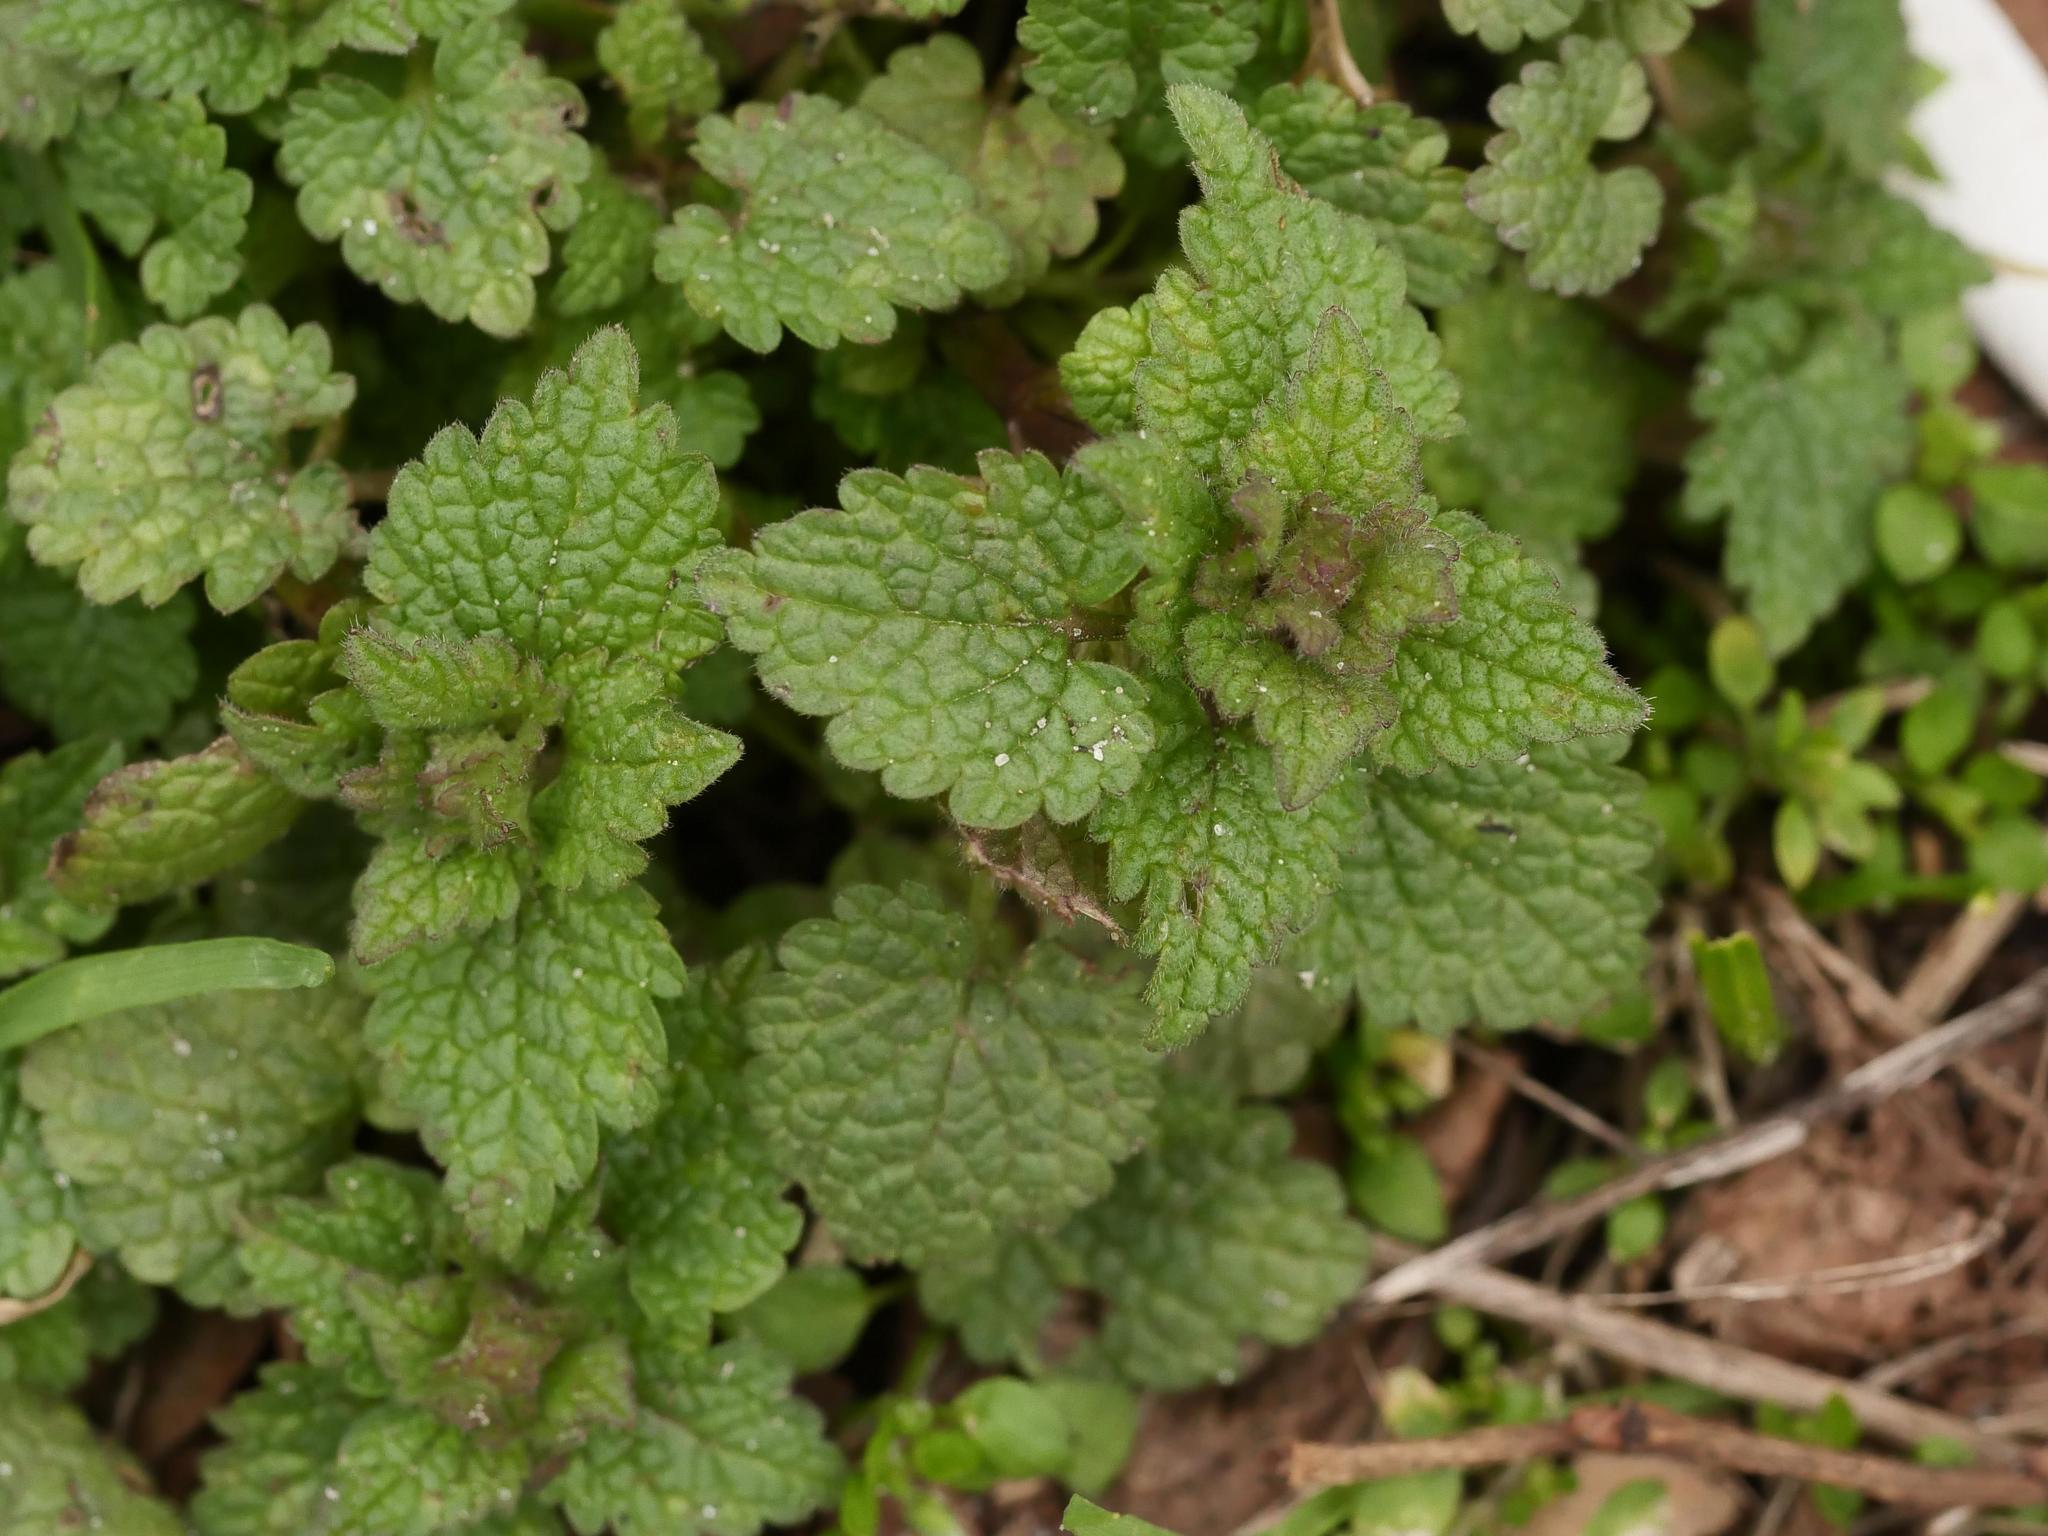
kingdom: Plantae
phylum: Tracheophyta
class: Magnoliopsida
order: Lamiales
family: Lamiaceae
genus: Lamium
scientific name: Lamium purpureum
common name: Red dead-nettle
